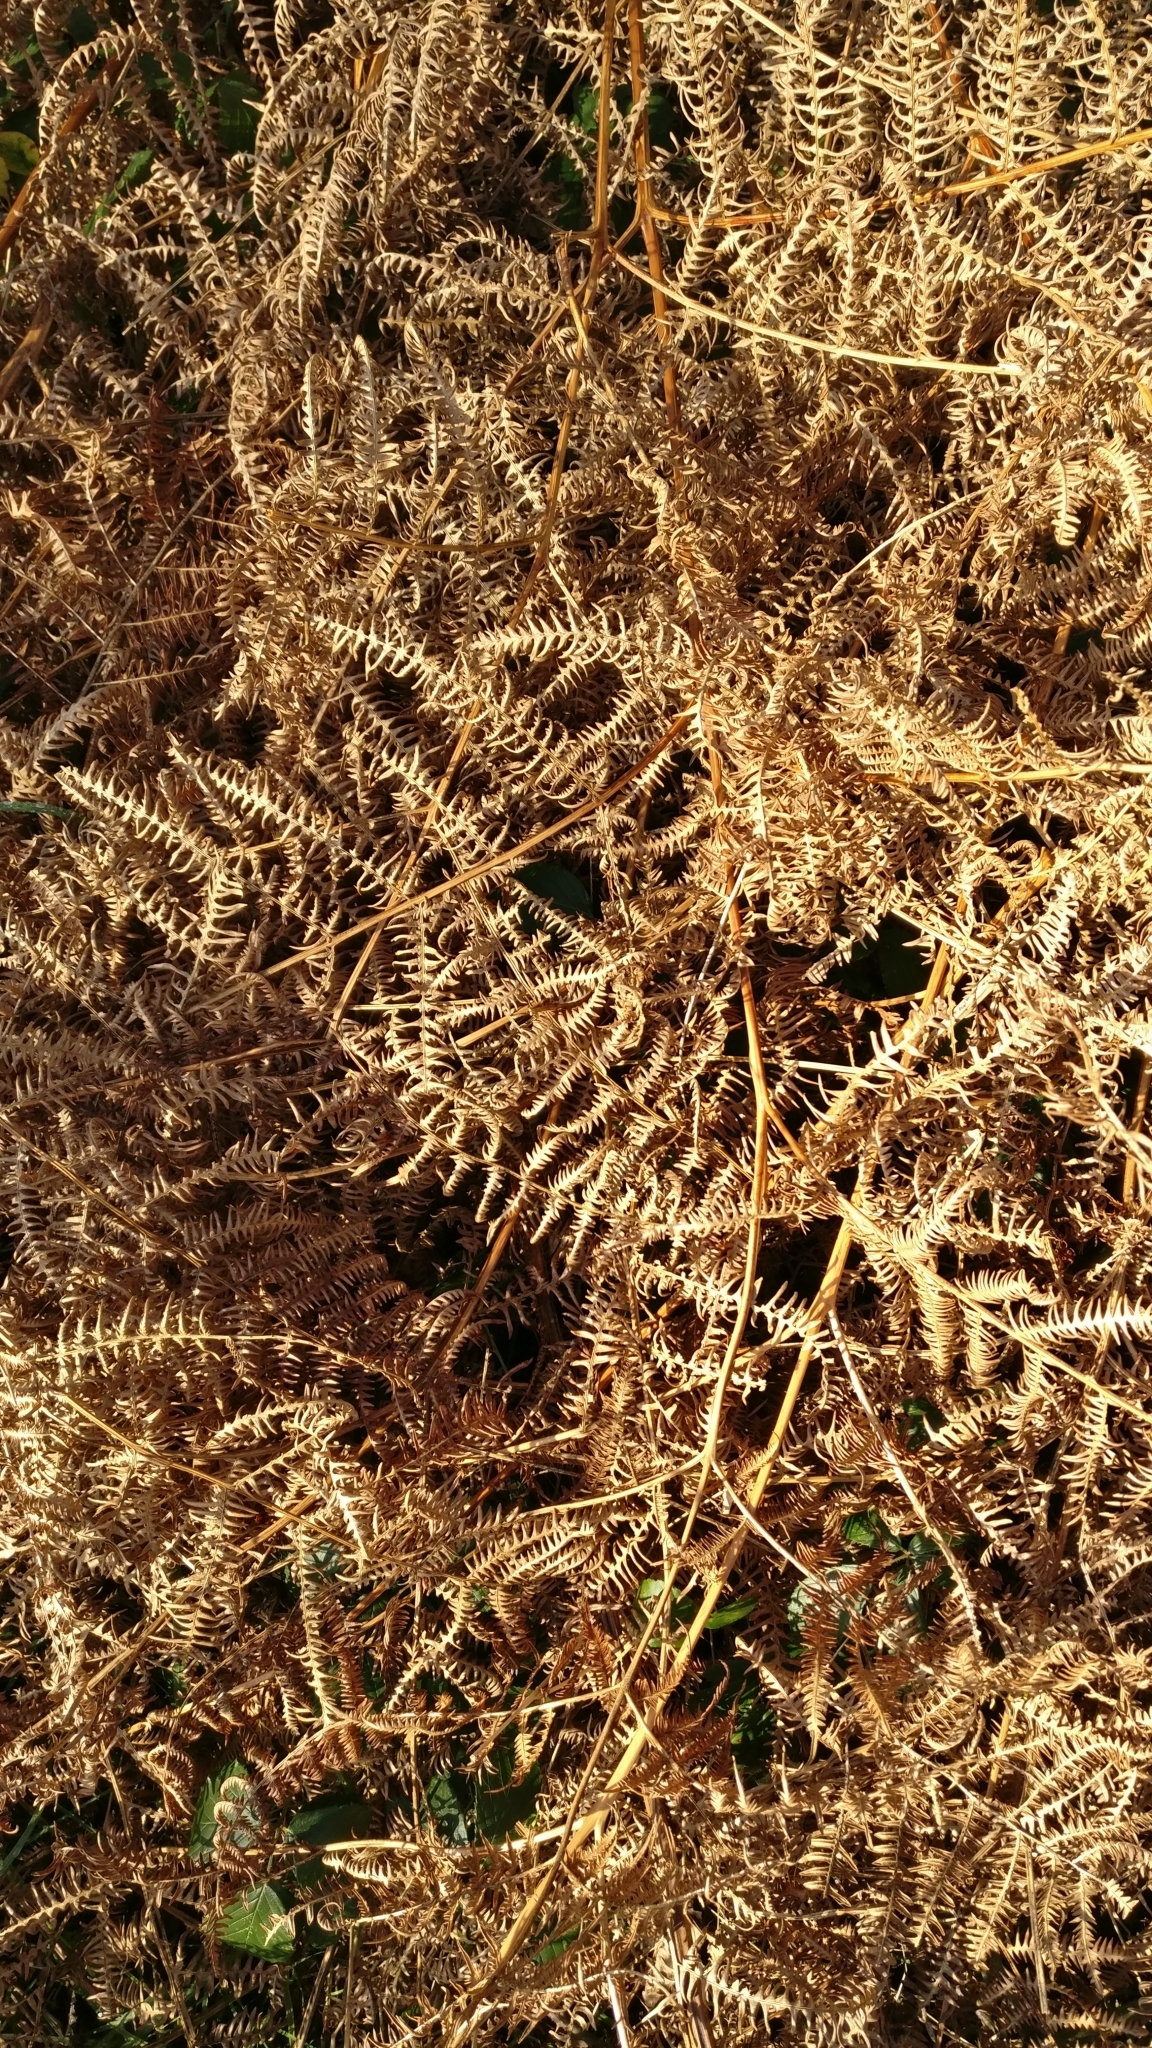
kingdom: Plantae
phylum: Tracheophyta
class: Polypodiopsida
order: Polypodiales
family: Dennstaedtiaceae
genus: Pteridium
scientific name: Pteridium aquilinum
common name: Bracken
